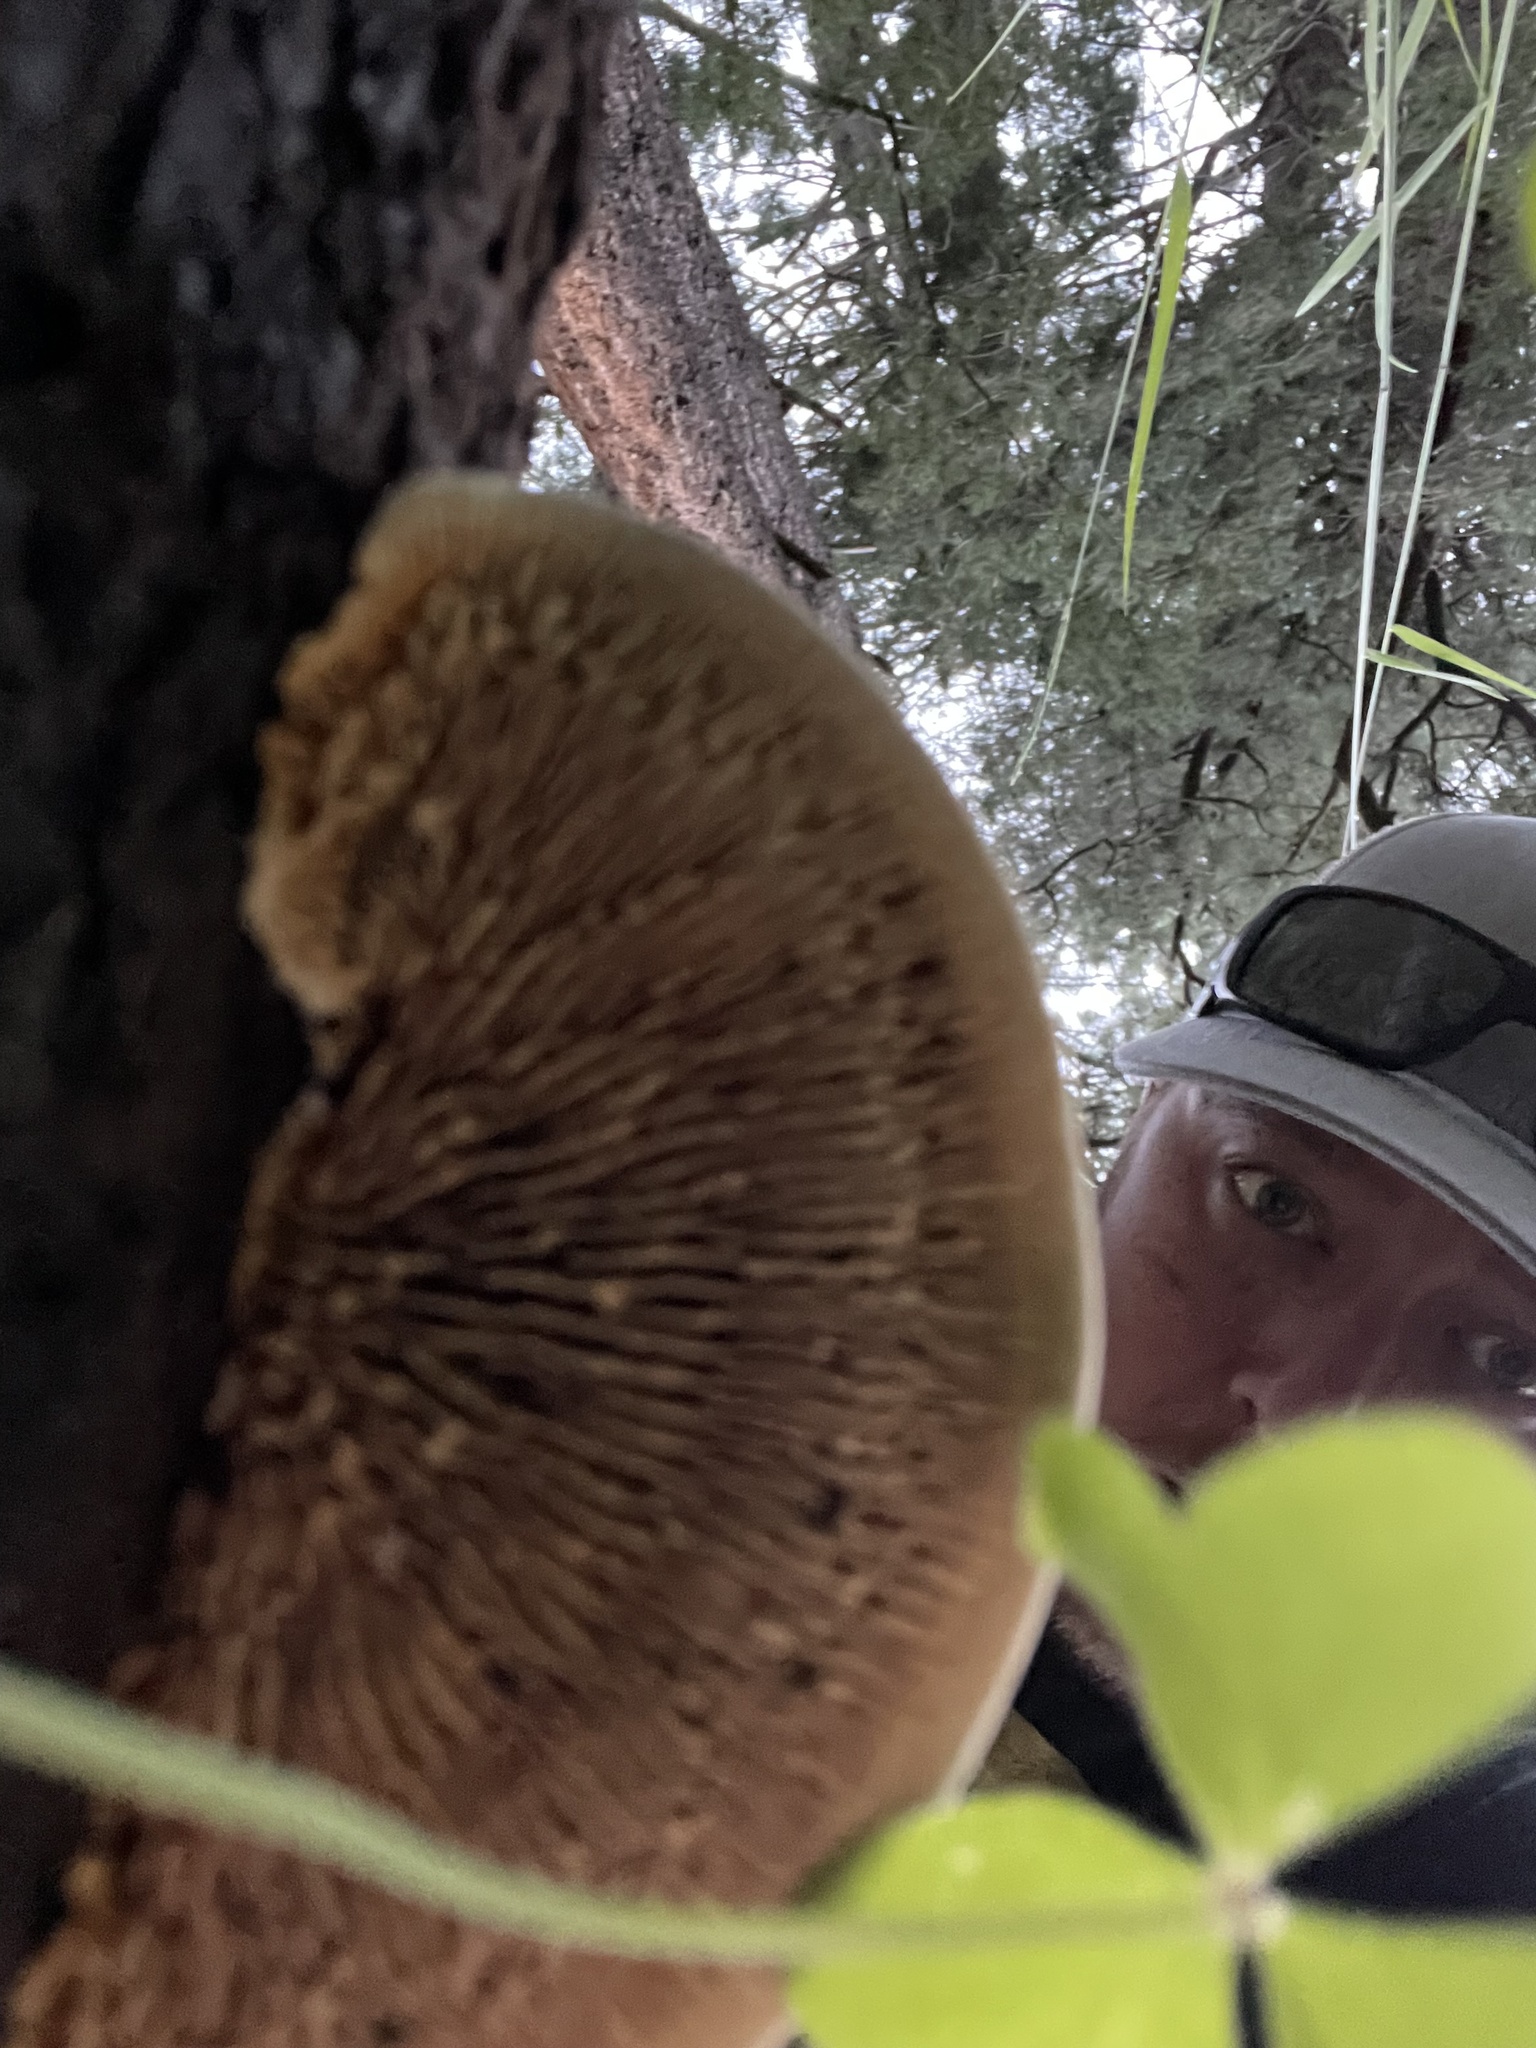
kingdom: Fungi
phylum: Basidiomycota
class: Agaricomycetes
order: Gloeophyllales
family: Gloeophyllaceae
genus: Gloeophyllum
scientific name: Gloeophyllum sepiarium
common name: Conifer mazegill
